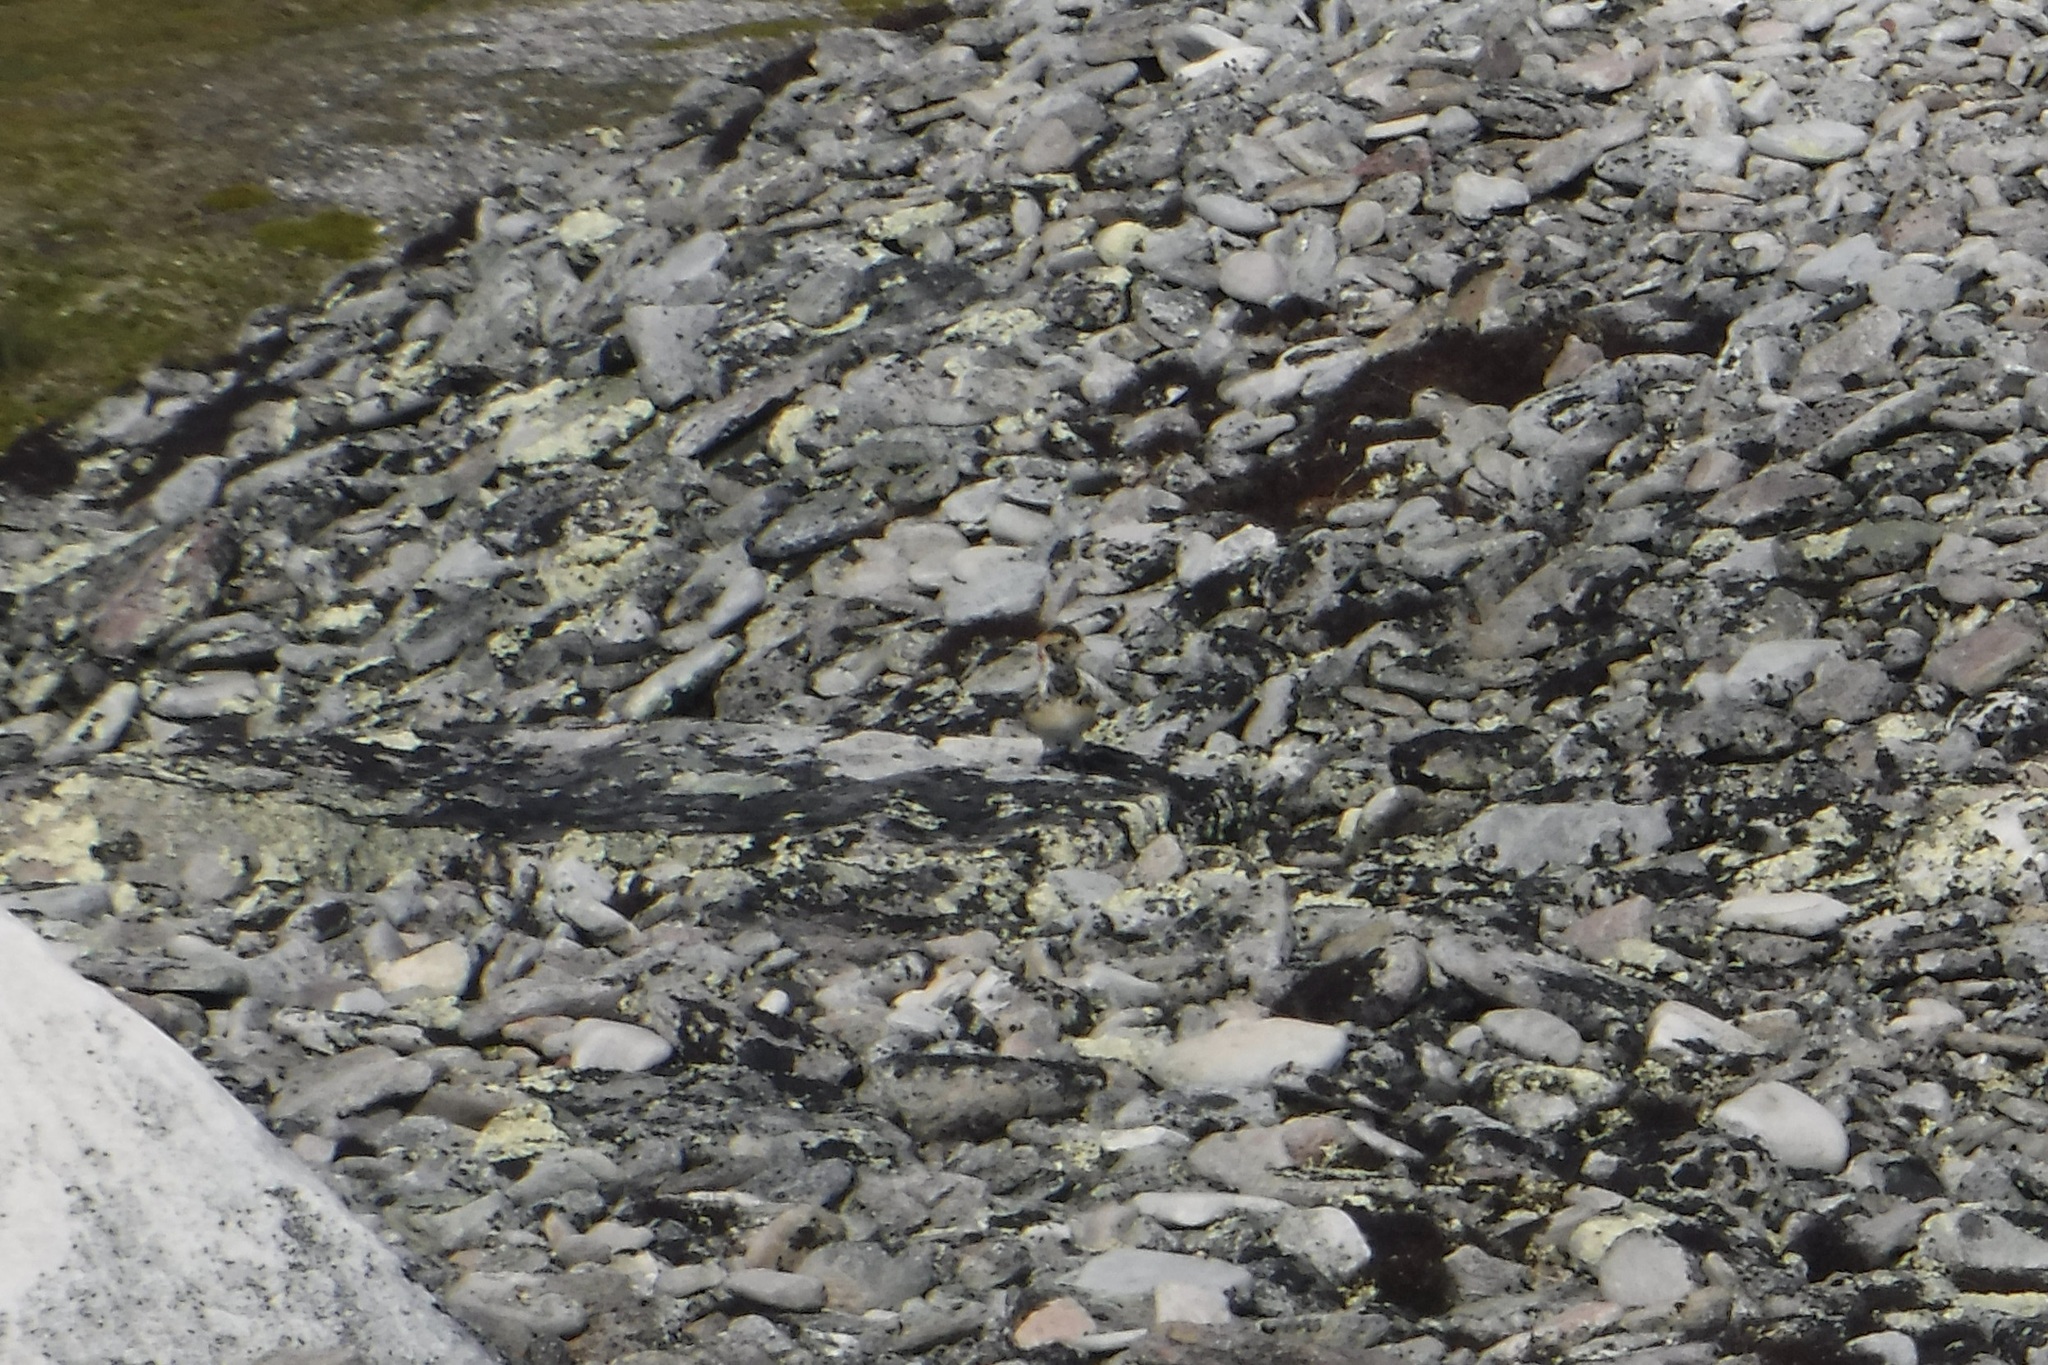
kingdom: Animalia
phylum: Chordata
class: Aves
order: Passeriformes
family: Calcariidae
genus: Calcarius
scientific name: Calcarius lapponicus
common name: Lapland longspur
